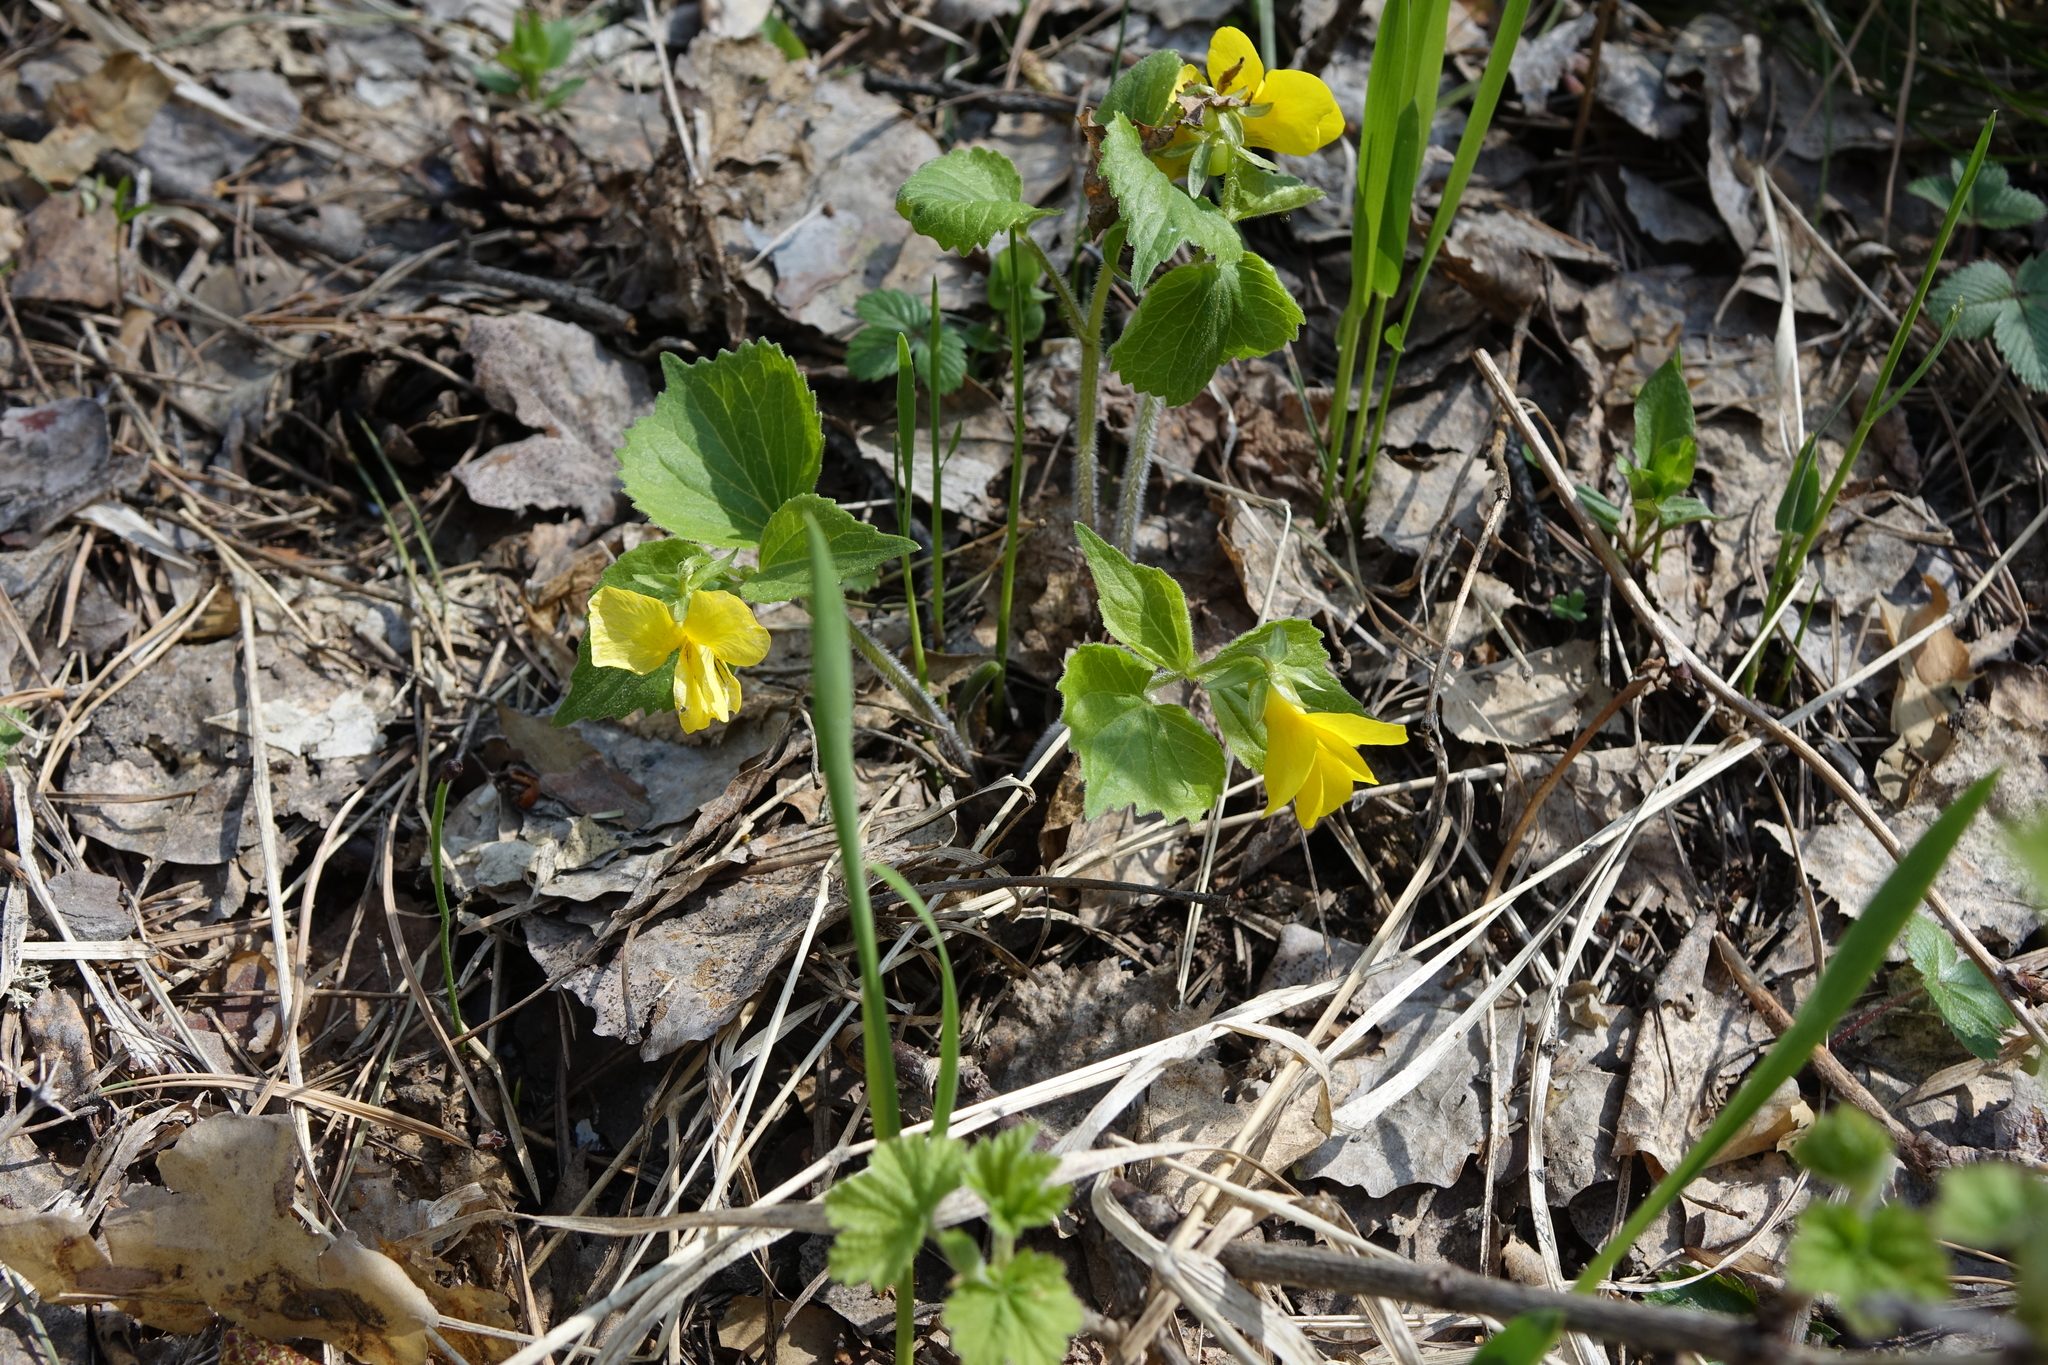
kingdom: Plantae
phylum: Tracheophyta
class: Magnoliopsida
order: Malpighiales
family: Violaceae
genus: Viola
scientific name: Viola uniflora
